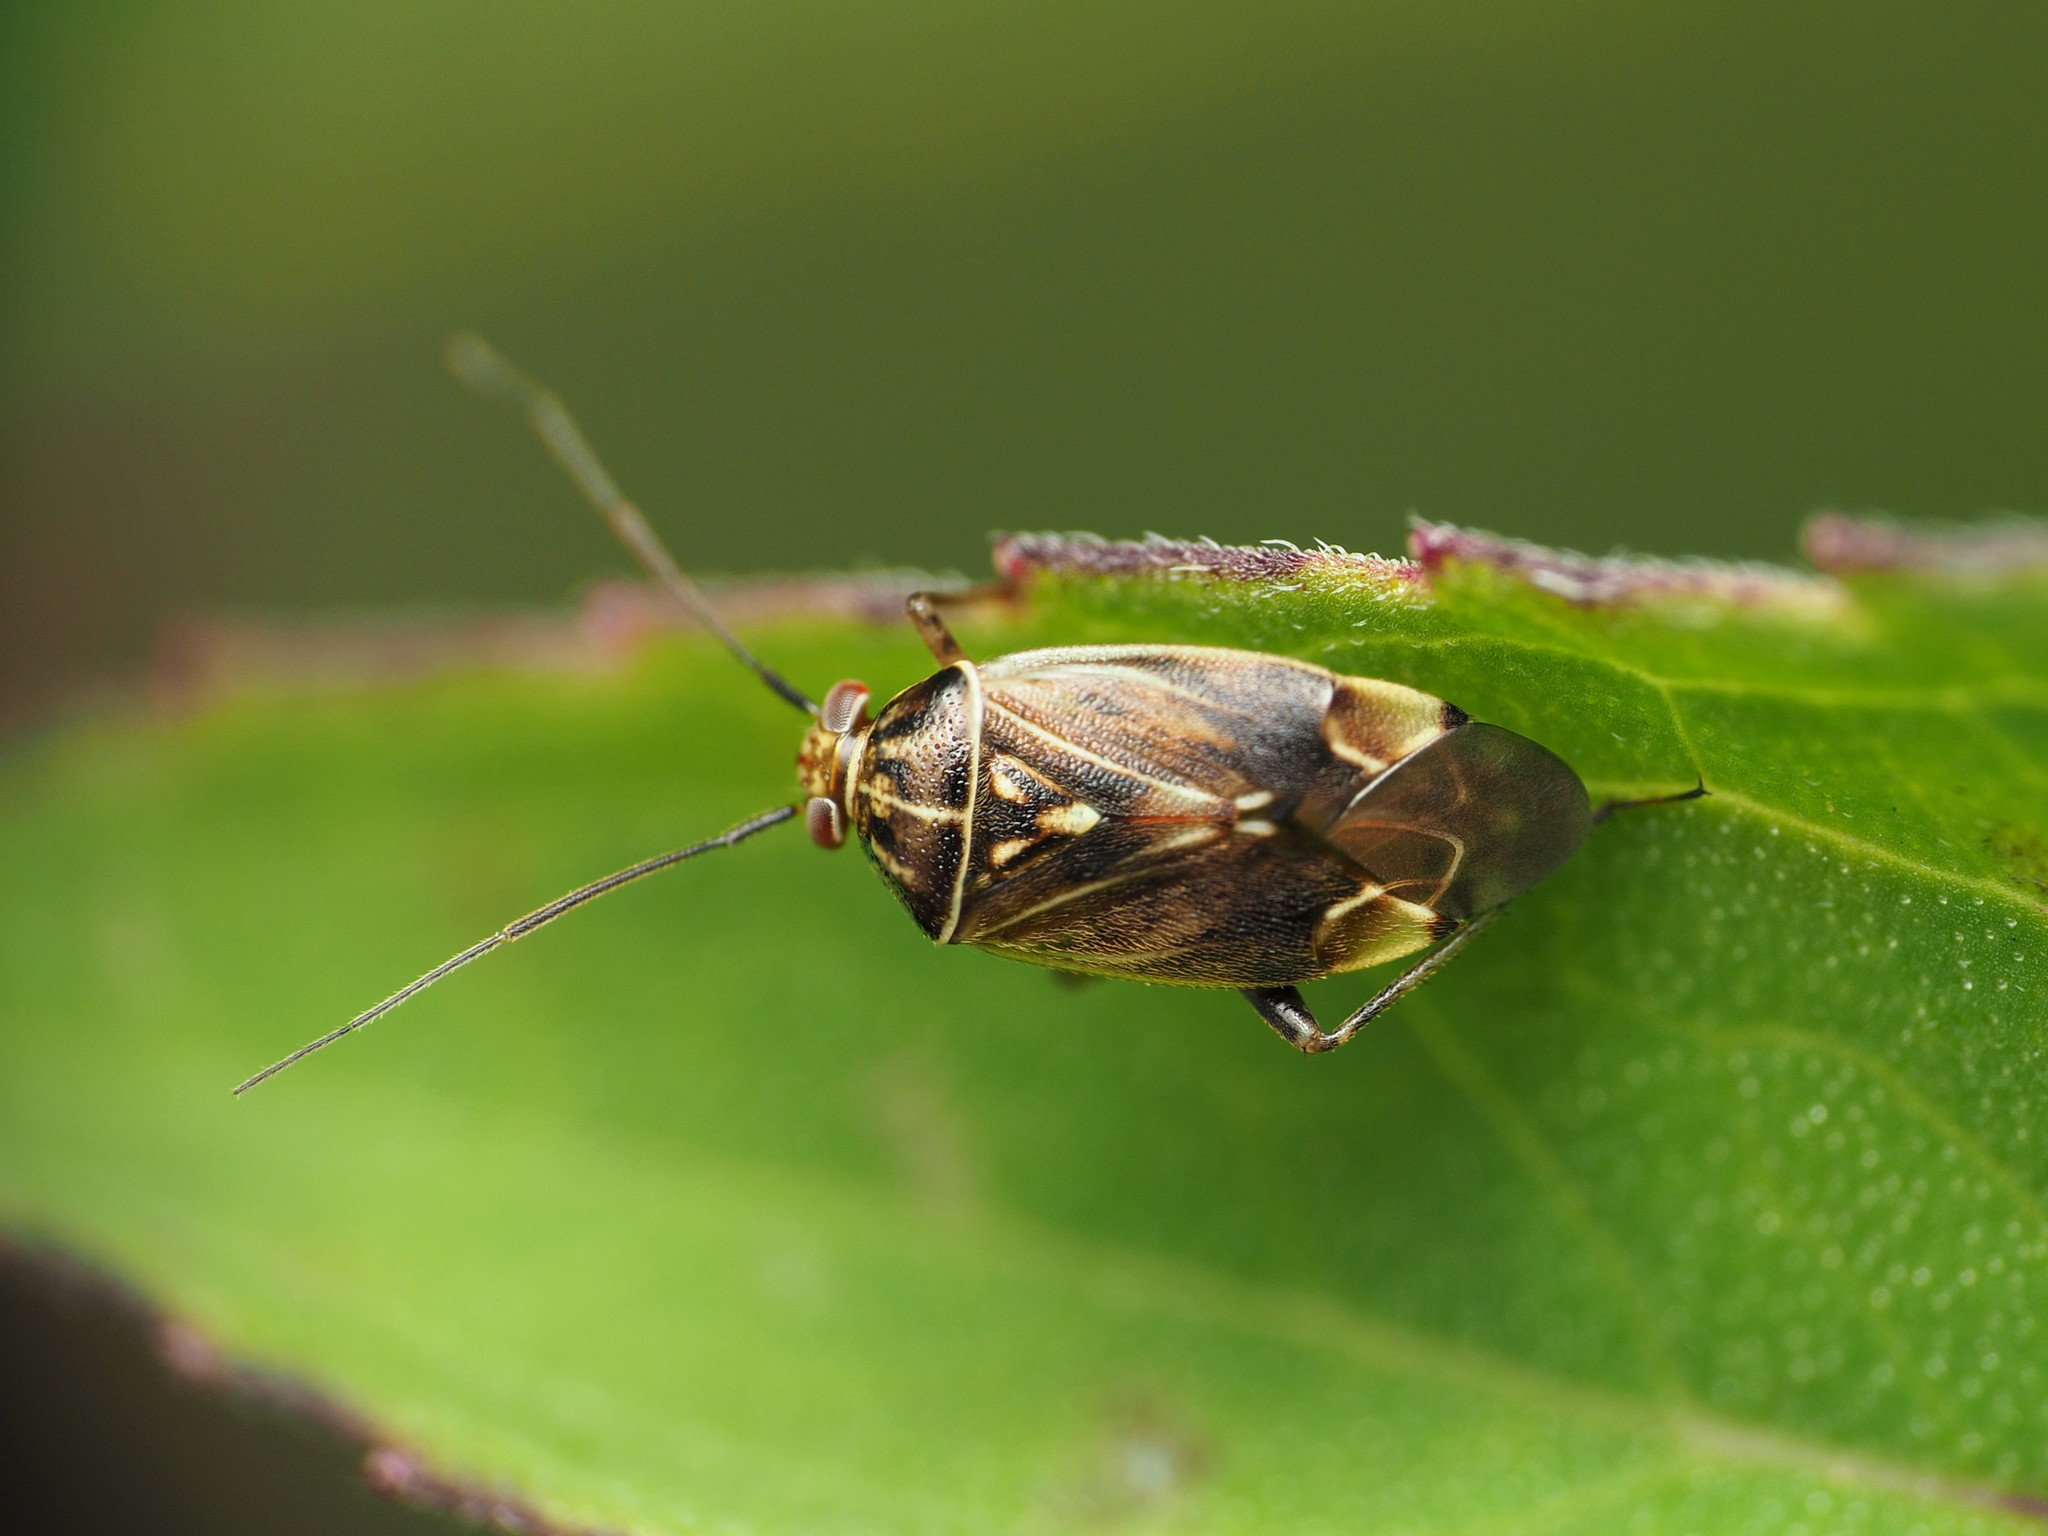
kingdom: Animalia
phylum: Arthropoda
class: Insecta
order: Hemiptera
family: Miridae
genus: Lygus
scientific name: Lygus lineolaris
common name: North american tarnished plant bug
